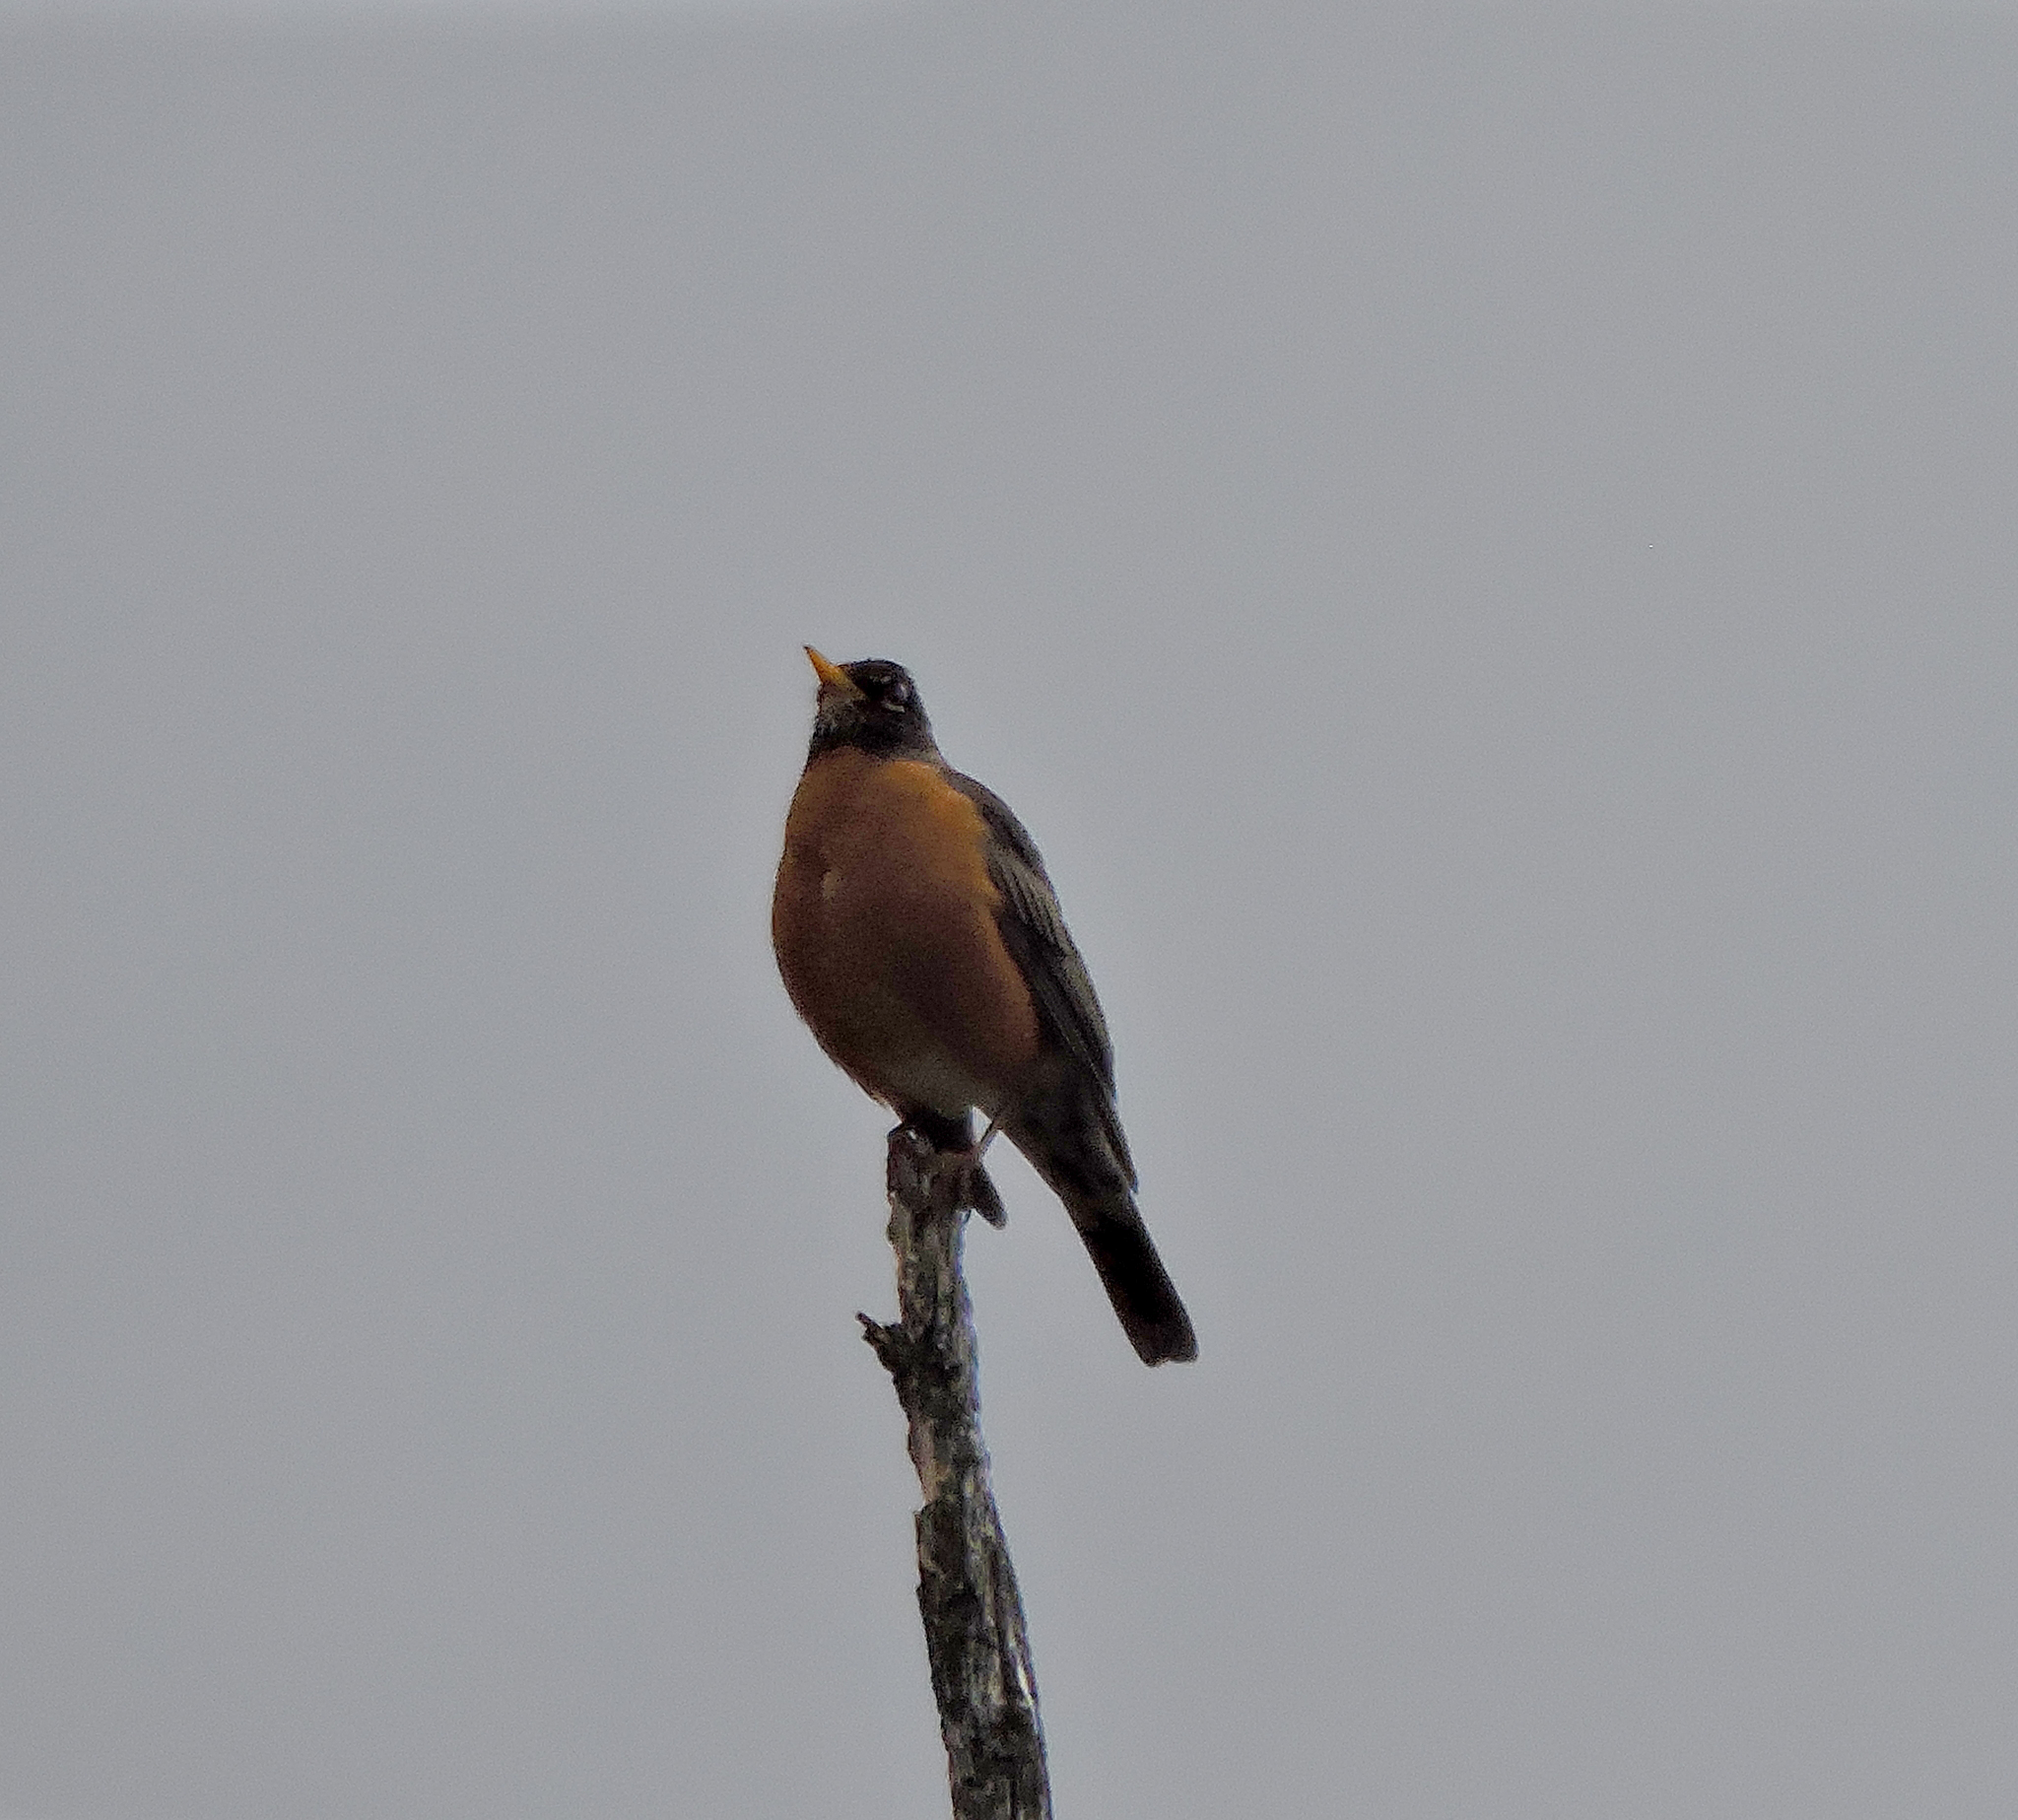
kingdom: Animalia
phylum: Chordata
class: Aves
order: Passeriformes
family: Turdidae
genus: Turdus
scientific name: Turdus migratorius
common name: American robin
